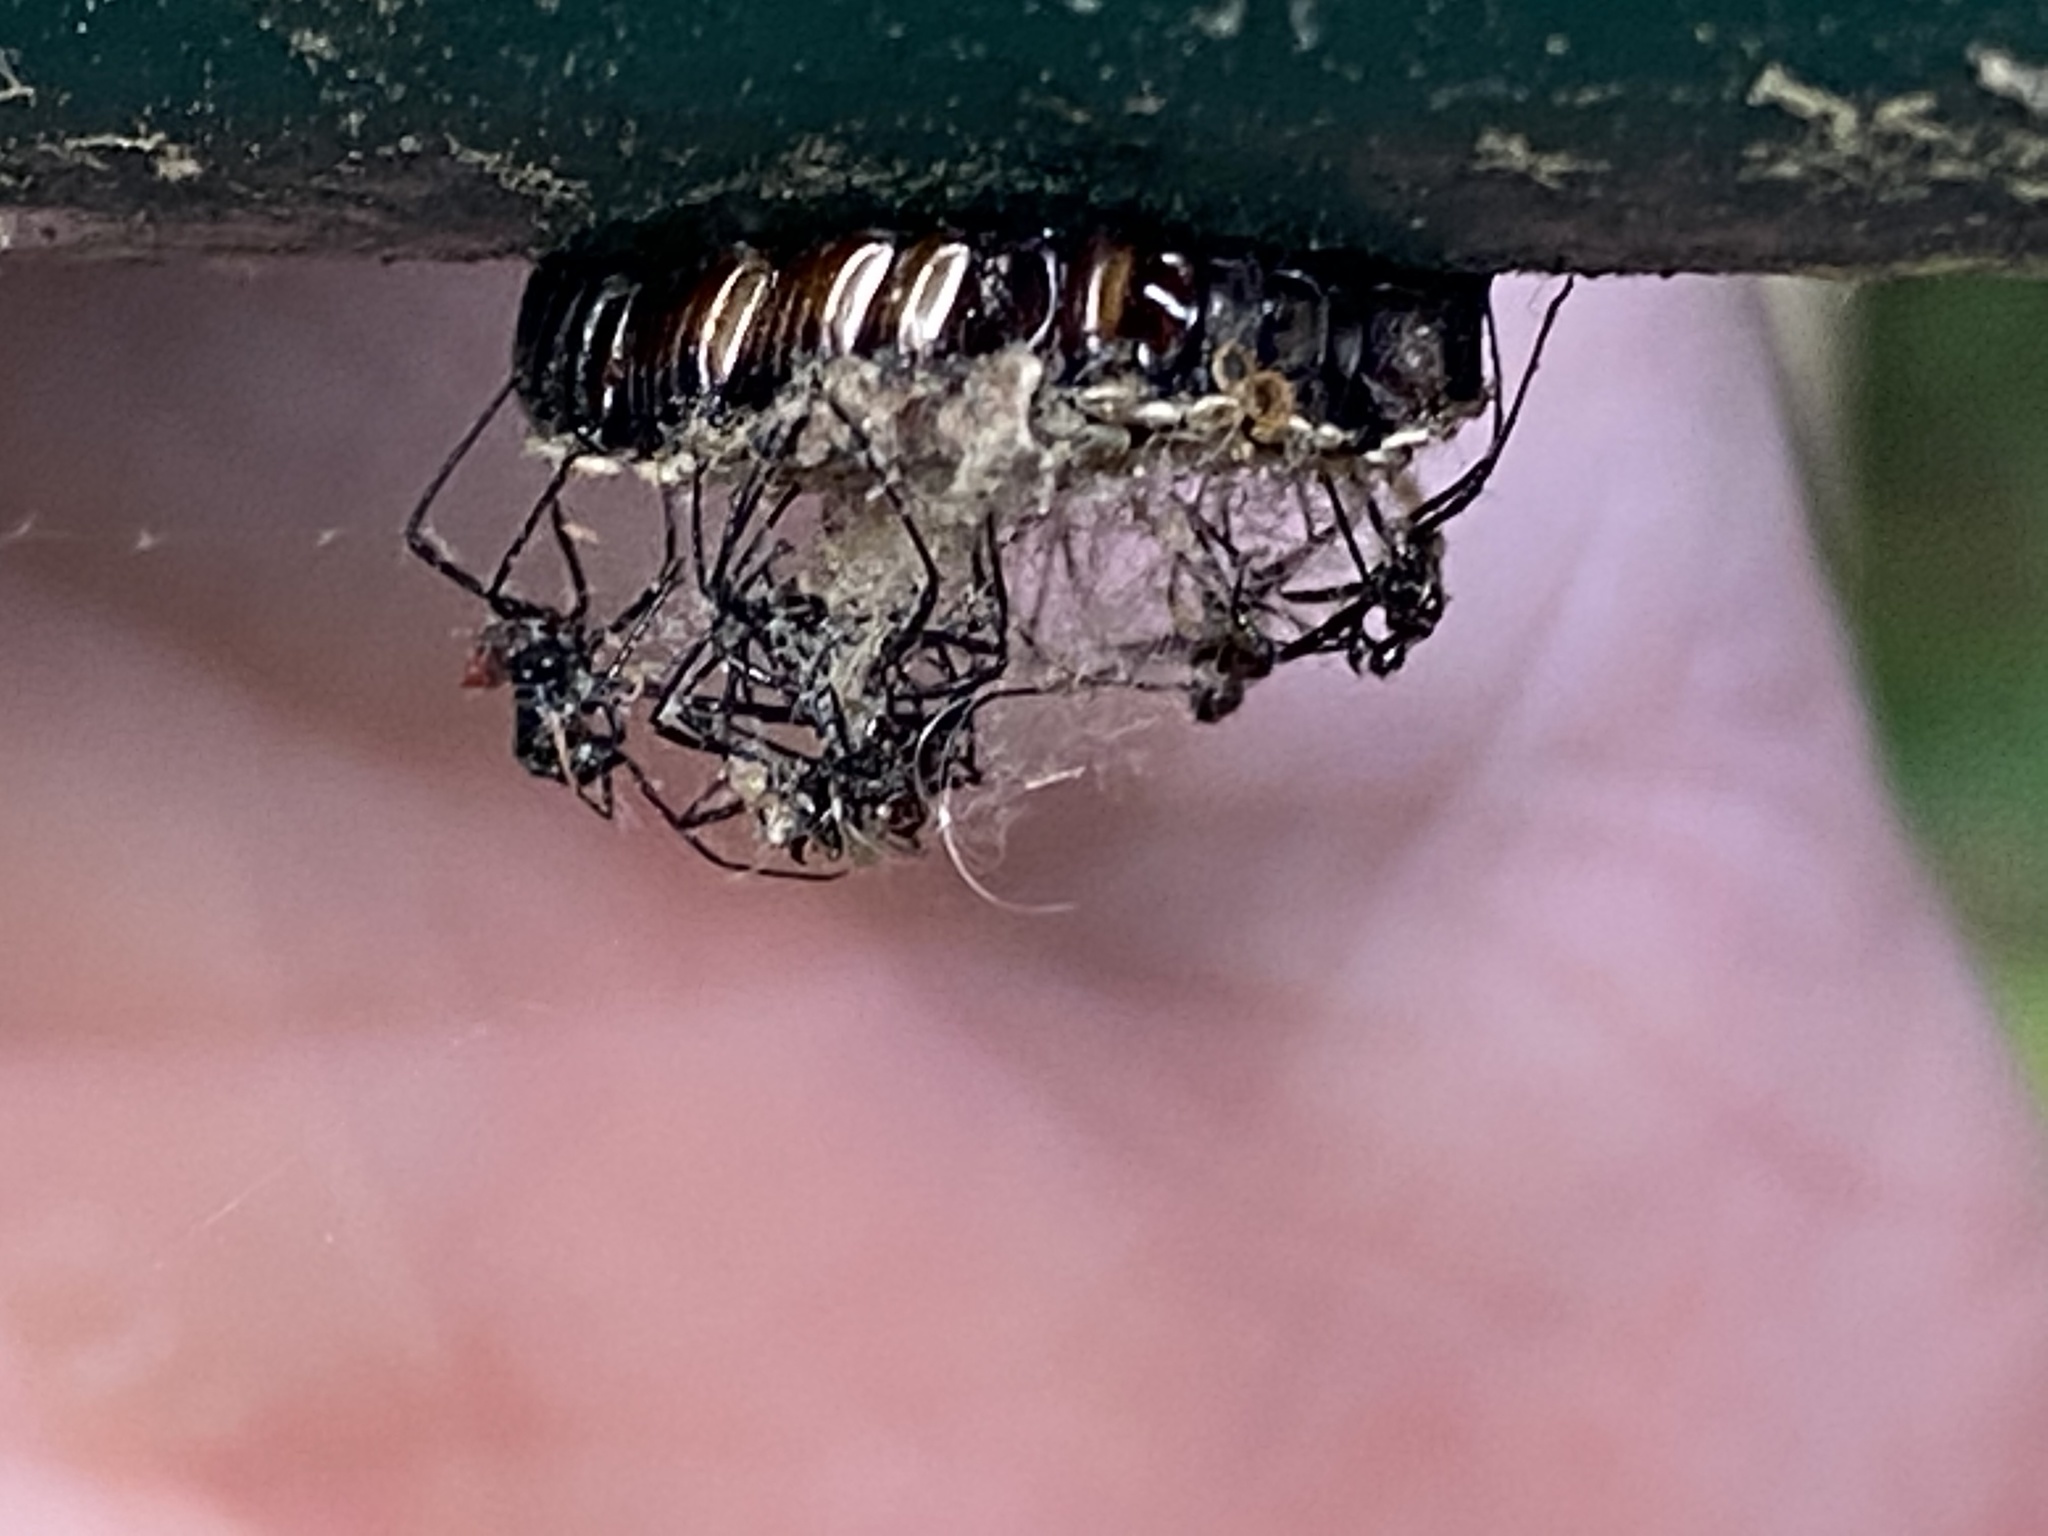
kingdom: Animalia
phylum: Arthropoda
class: Insecta
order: Hemiptera
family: Reduviidae
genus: Arilus
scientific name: Arilus cristatus
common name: North american wheel bug
